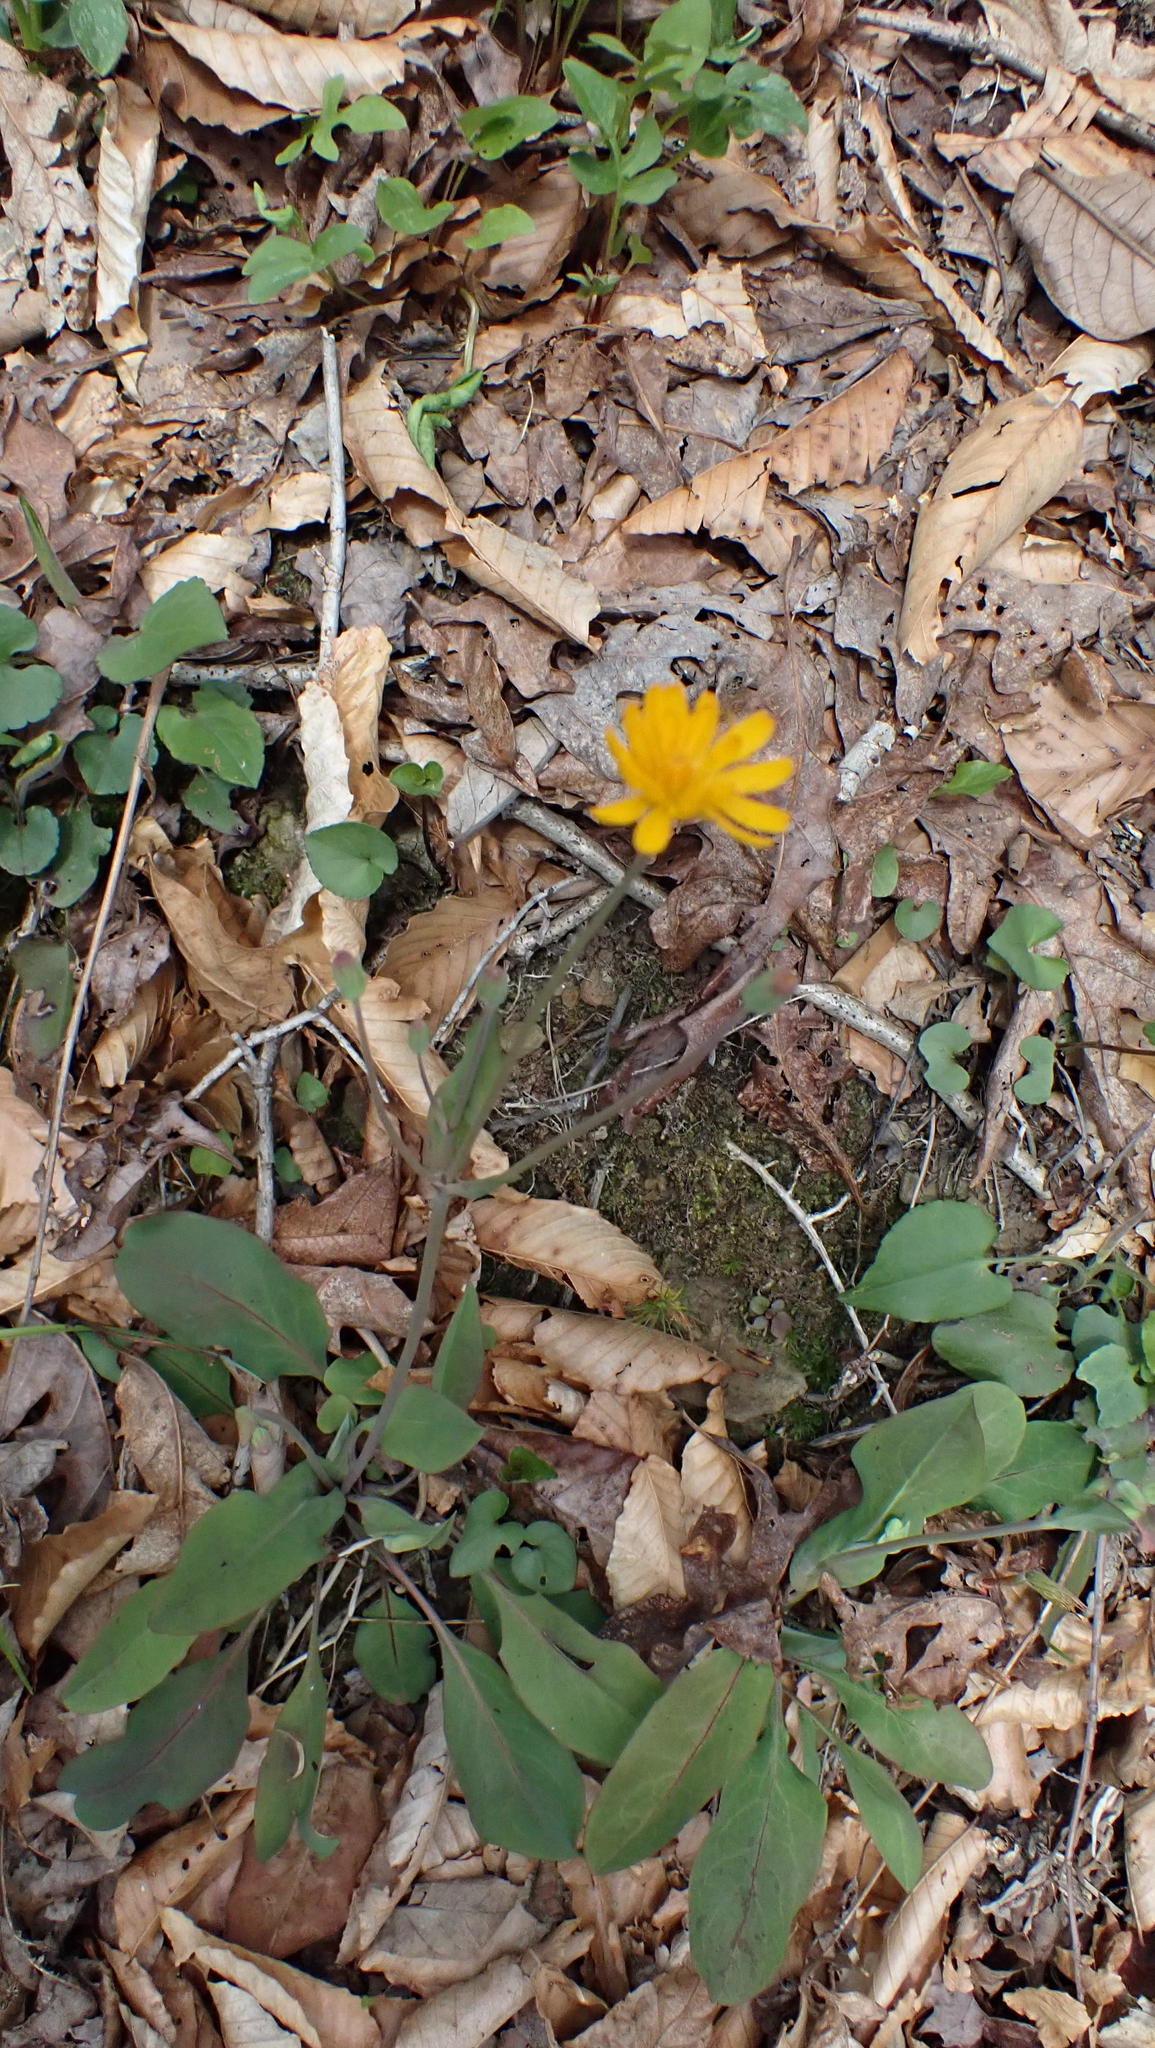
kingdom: Plantae
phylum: Tracheophyta
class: Magnoliopsida
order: Asterales
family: Asteraceae
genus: Krigia
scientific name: Krigia biflora
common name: Orange dwarf-dandelion
